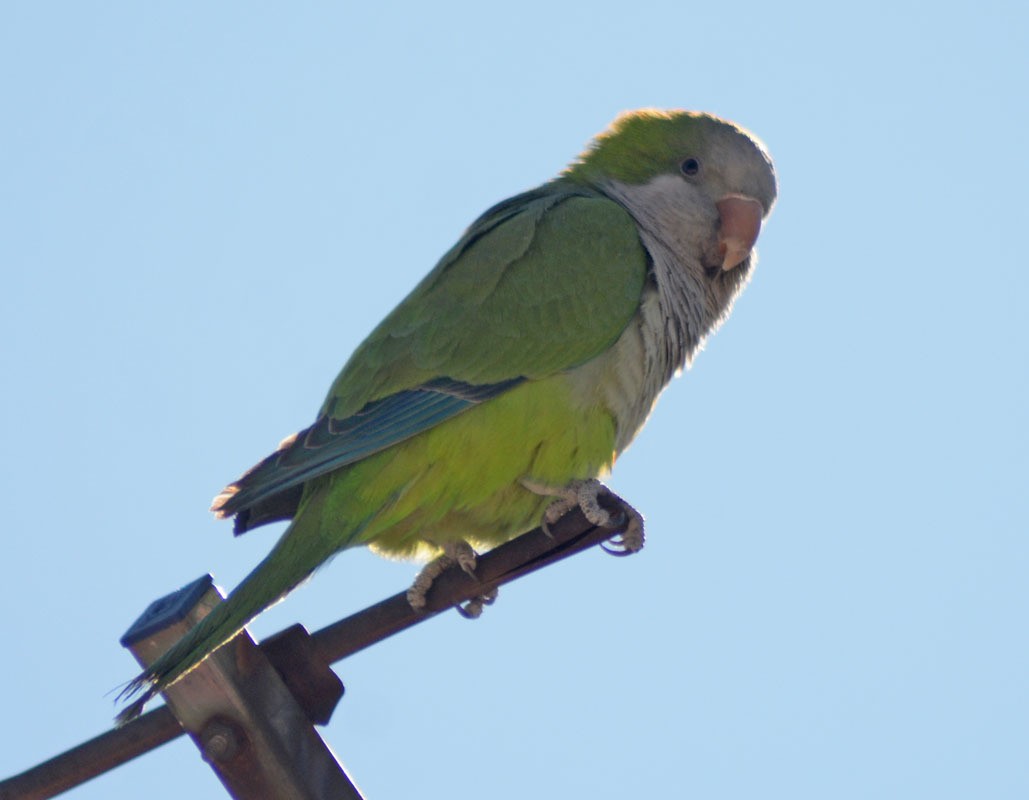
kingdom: Animalia
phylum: Chordata
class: Aves
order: Psittaciformes
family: Psittacidae
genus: Myiopsitta
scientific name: Myiopsitta monachus
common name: Monk parakeet
